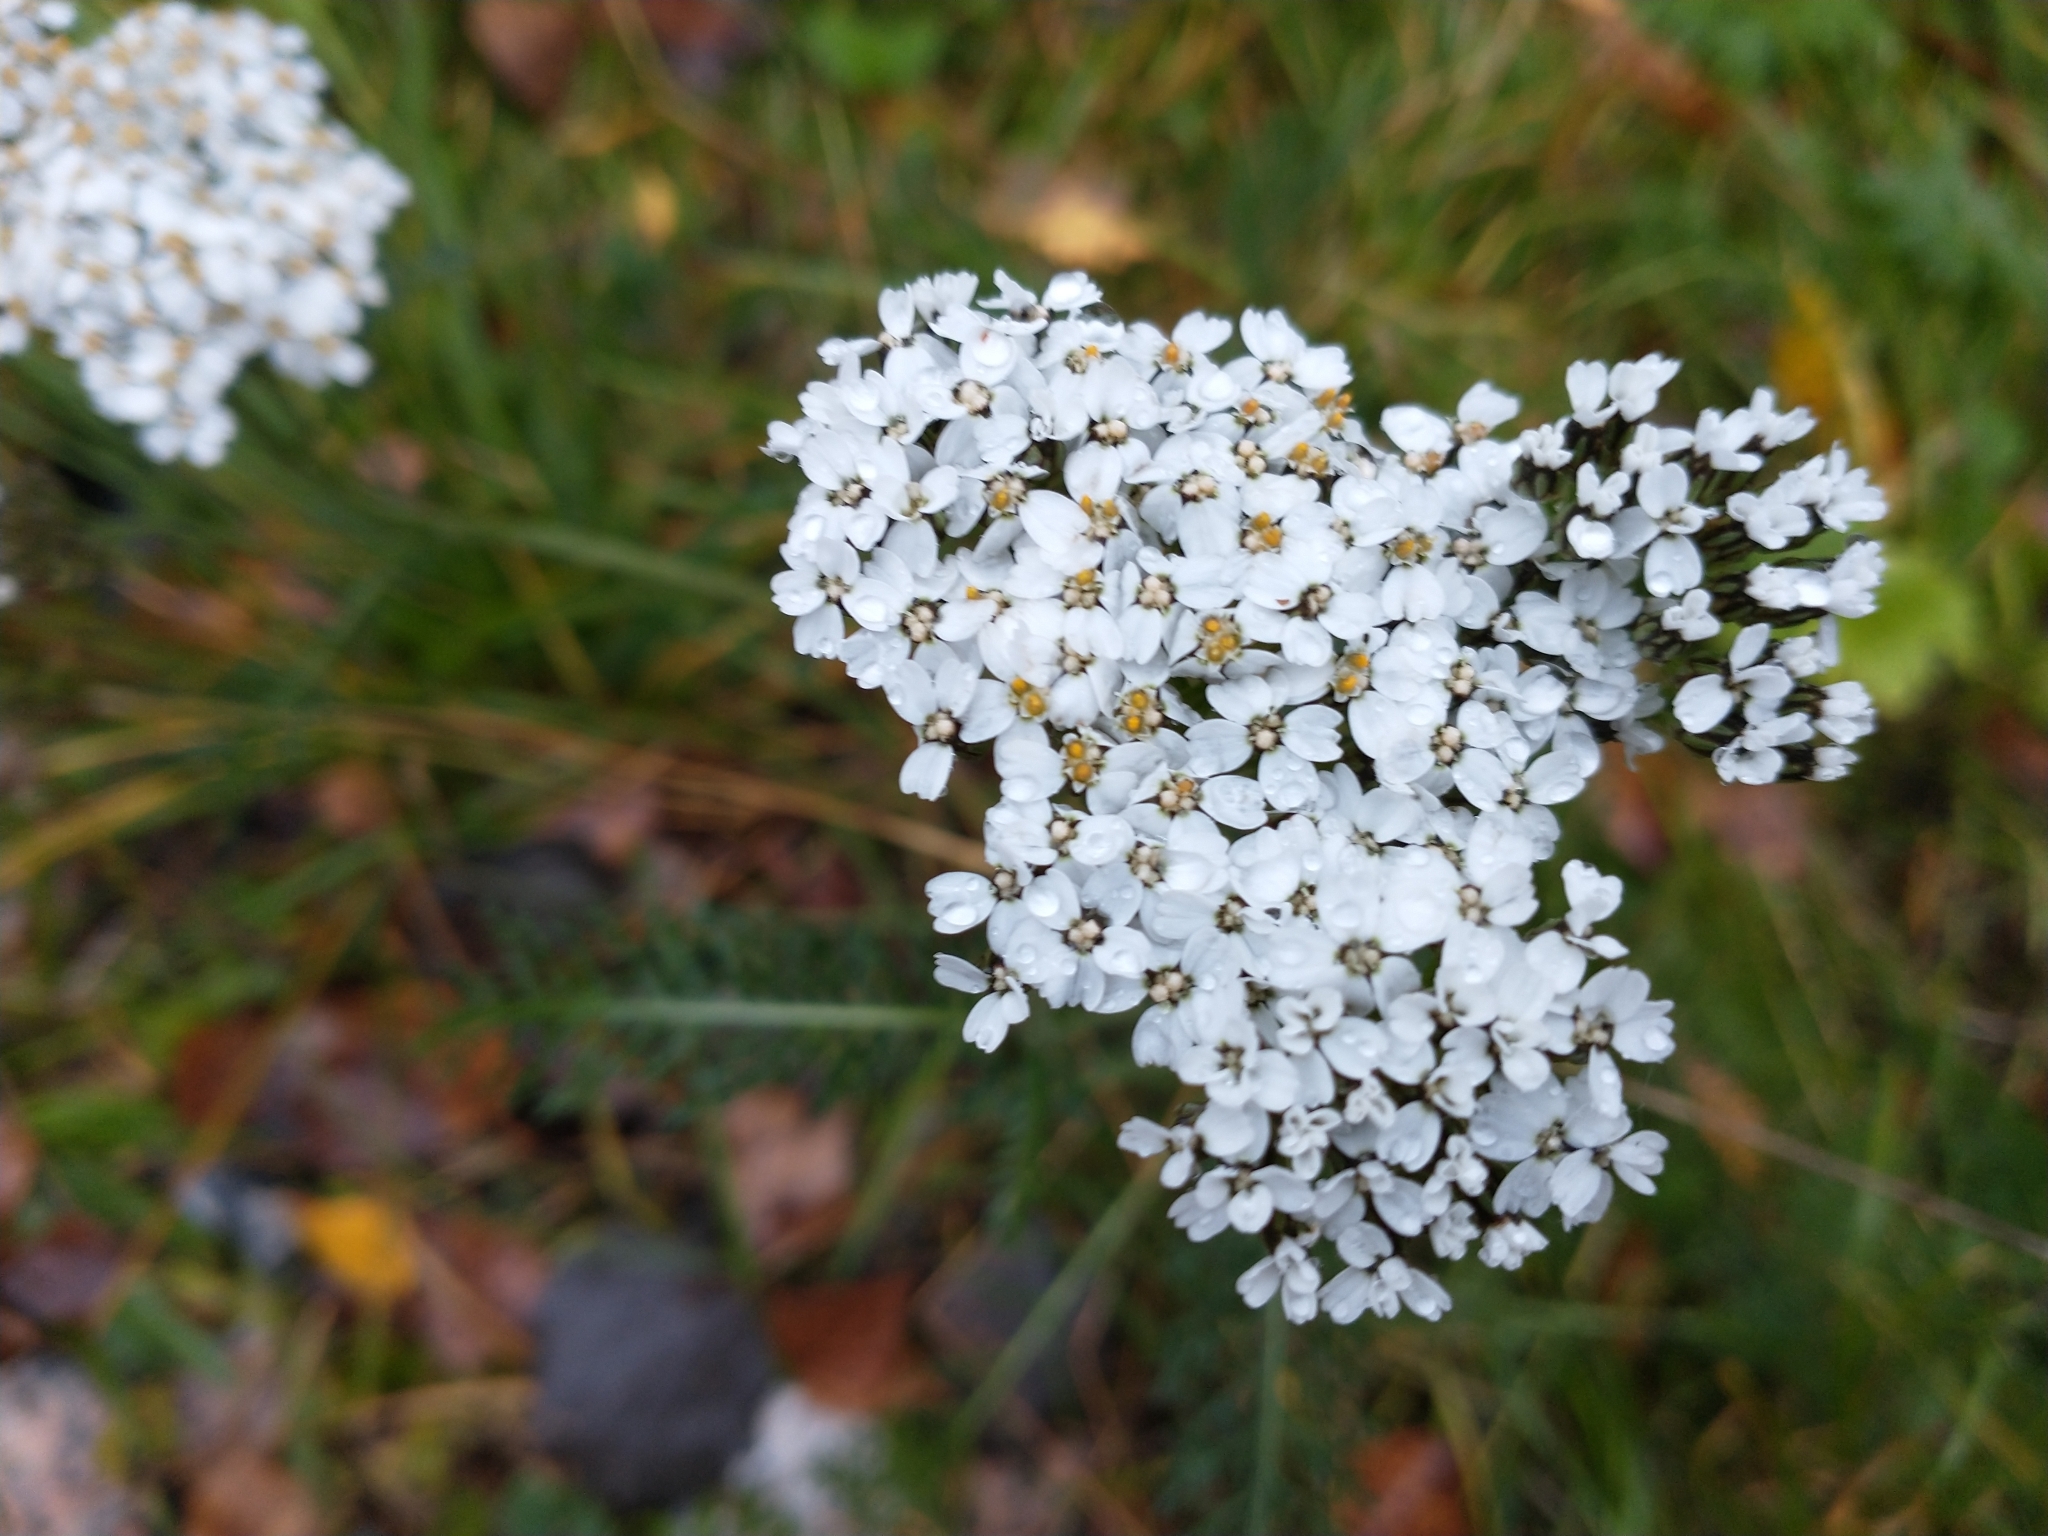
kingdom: Plantae
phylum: Tracheophyta
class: Magnoliopsida
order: Asterales
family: Asteraceae
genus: Achillea
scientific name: Achillea millefolium
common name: Yarrow
